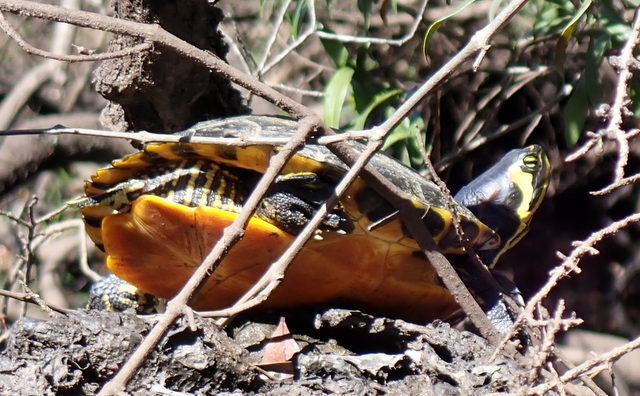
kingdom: Animalia
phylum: Chordata
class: Testudines
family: Emydidae
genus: Trachemys
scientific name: Trachemys scripta
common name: Slider
